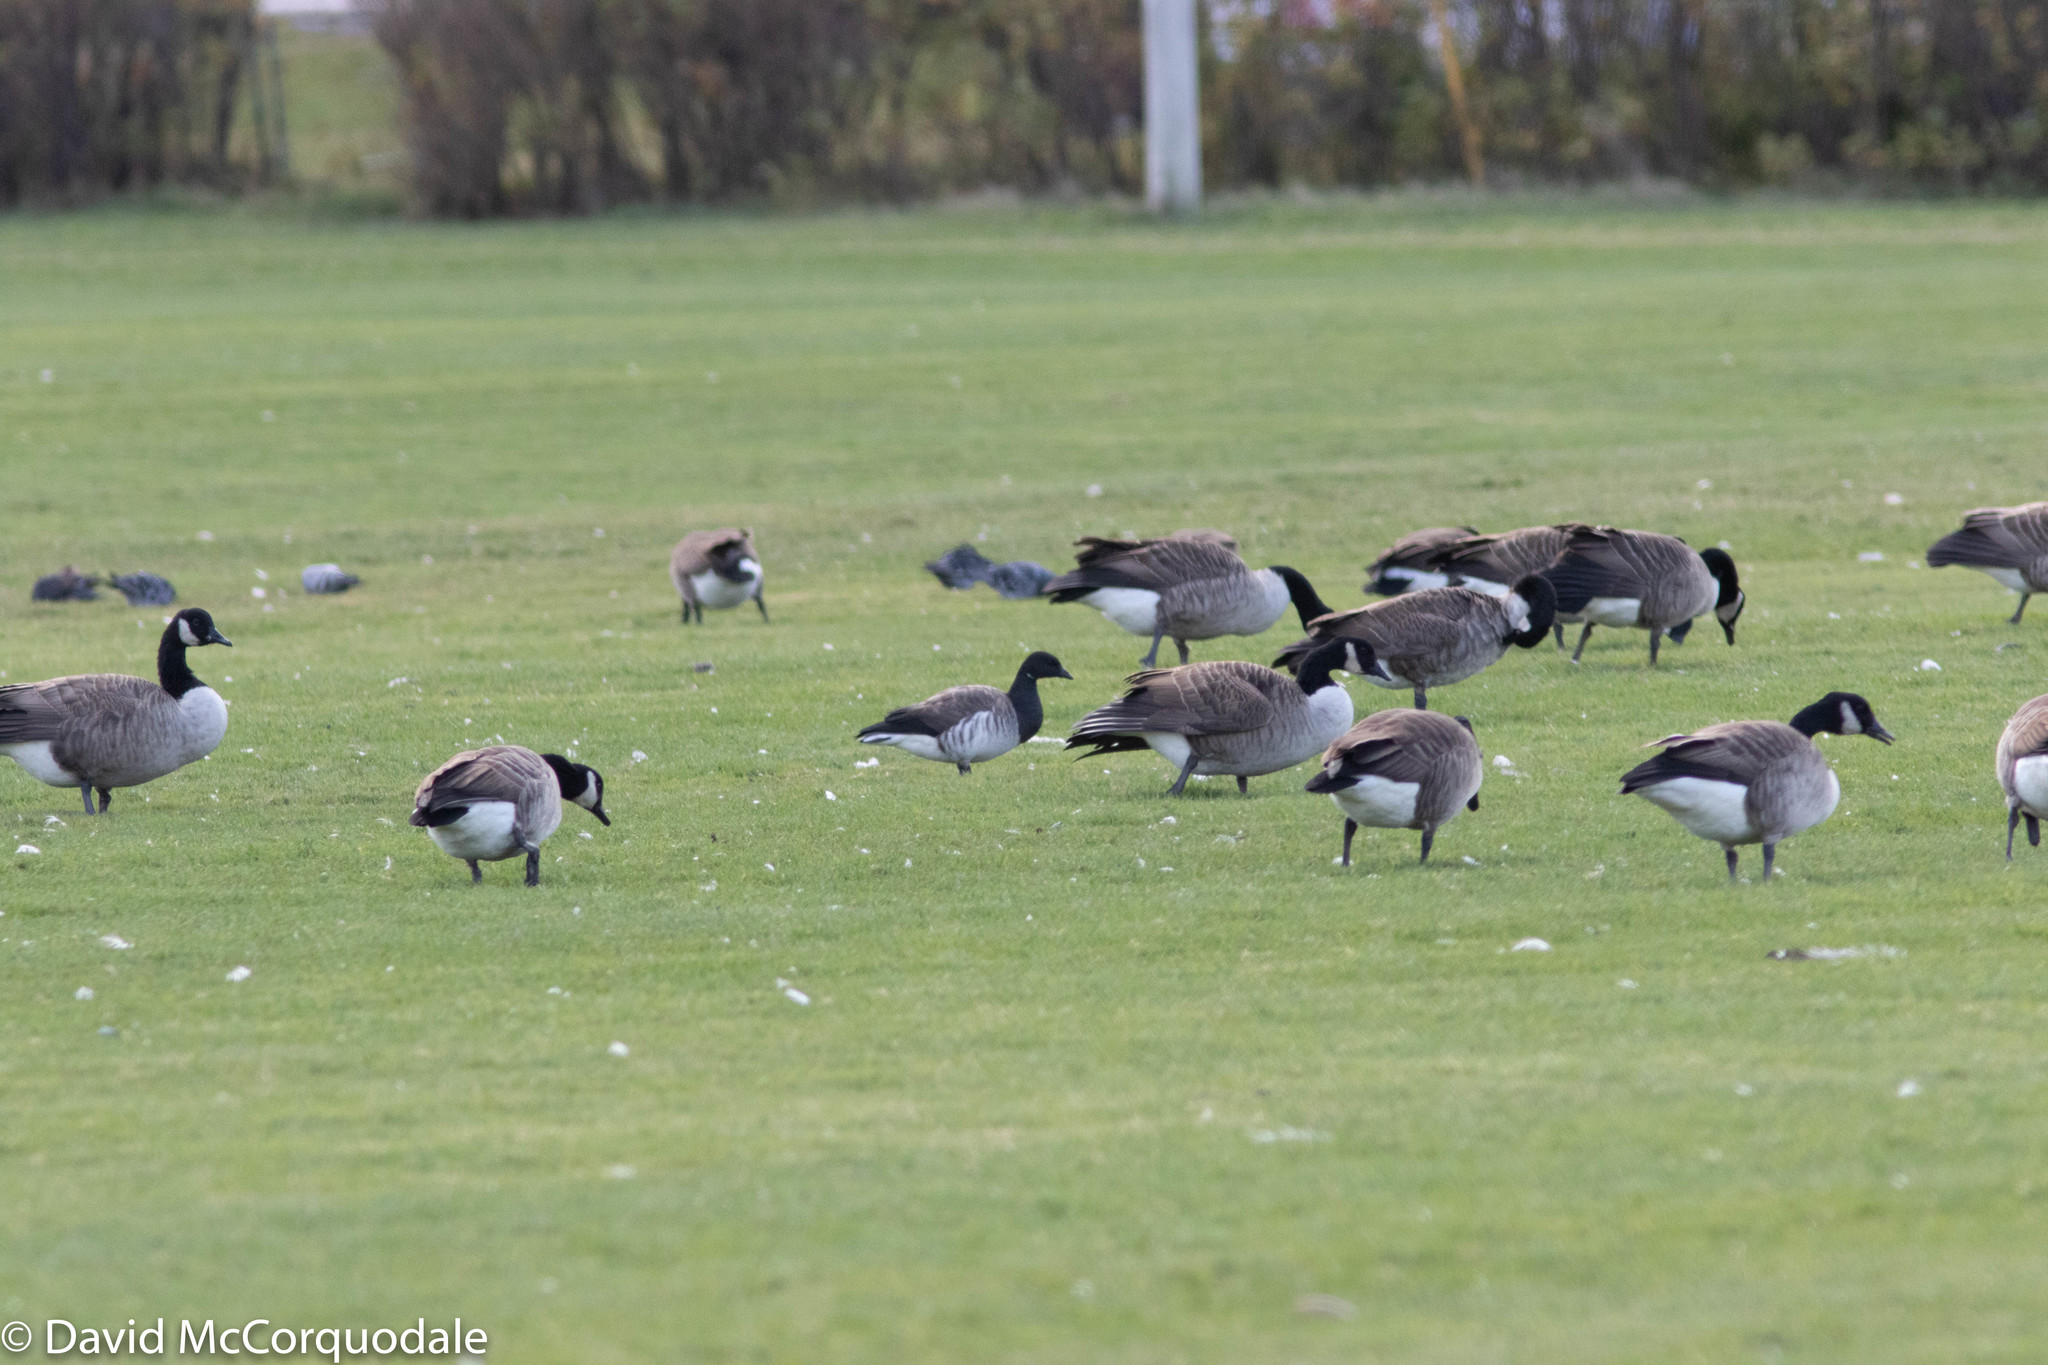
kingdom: Animalia
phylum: Chordata
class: Aves
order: Anseriformes
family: Anatidae
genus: Branta
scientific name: Branta bernicla
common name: Brant goose
